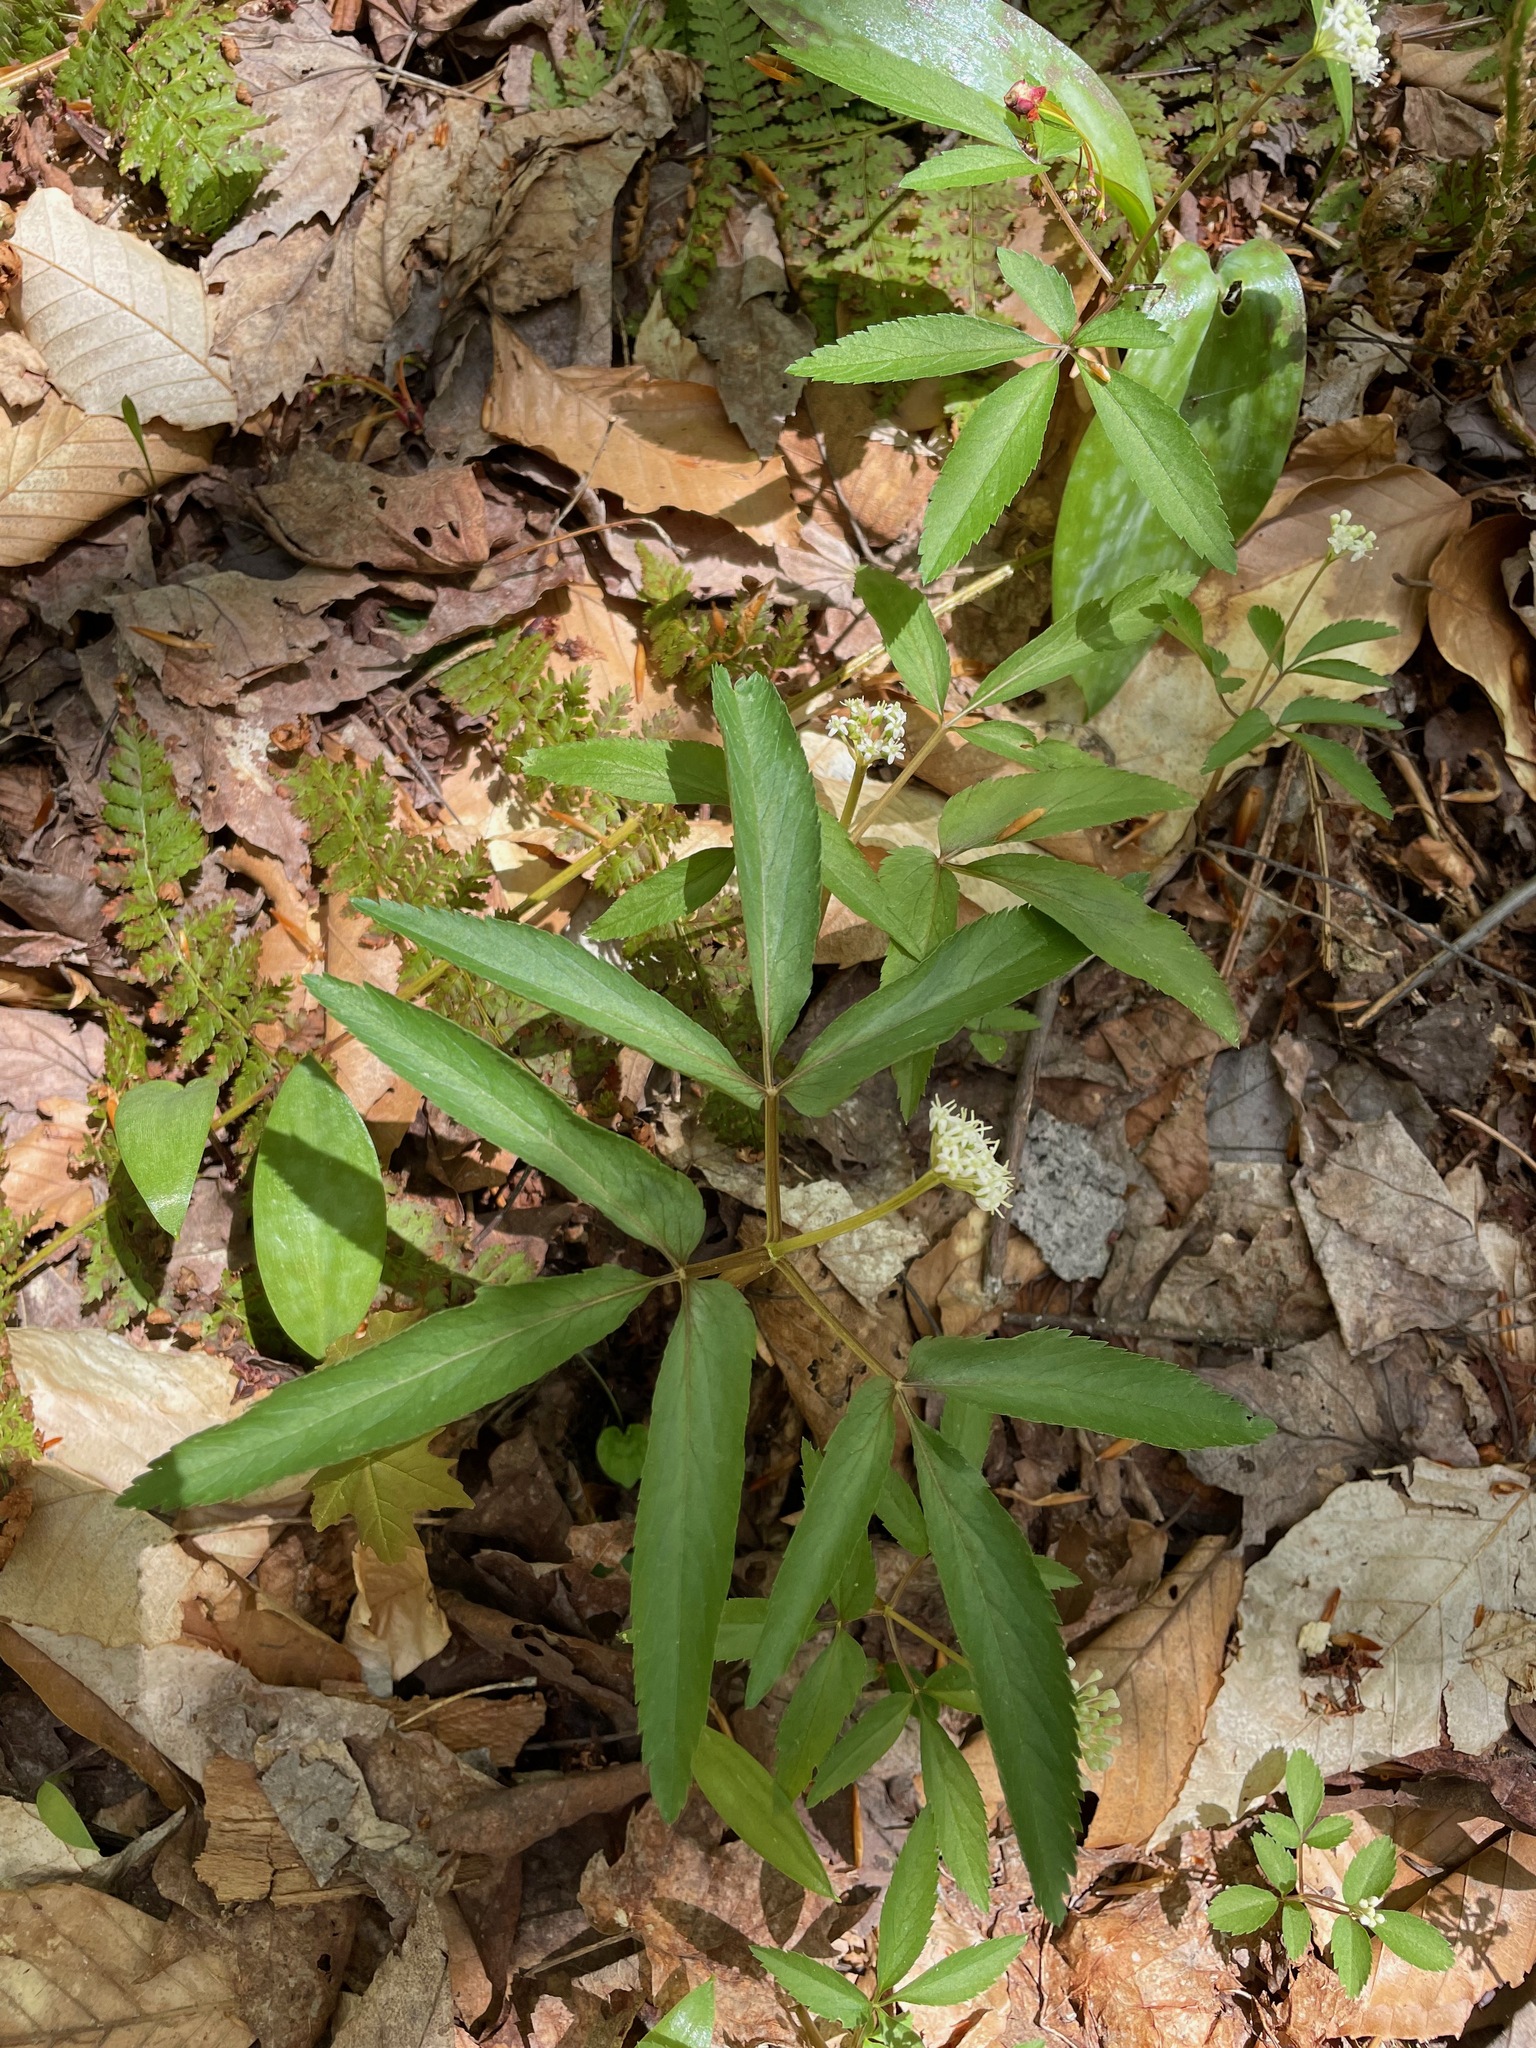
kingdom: Plantae
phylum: Tracheophyta
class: Magnoliopsida
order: Apiales
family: Araliaceae
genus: Panax
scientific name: Panax trifolius
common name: Dwarf ginseng
